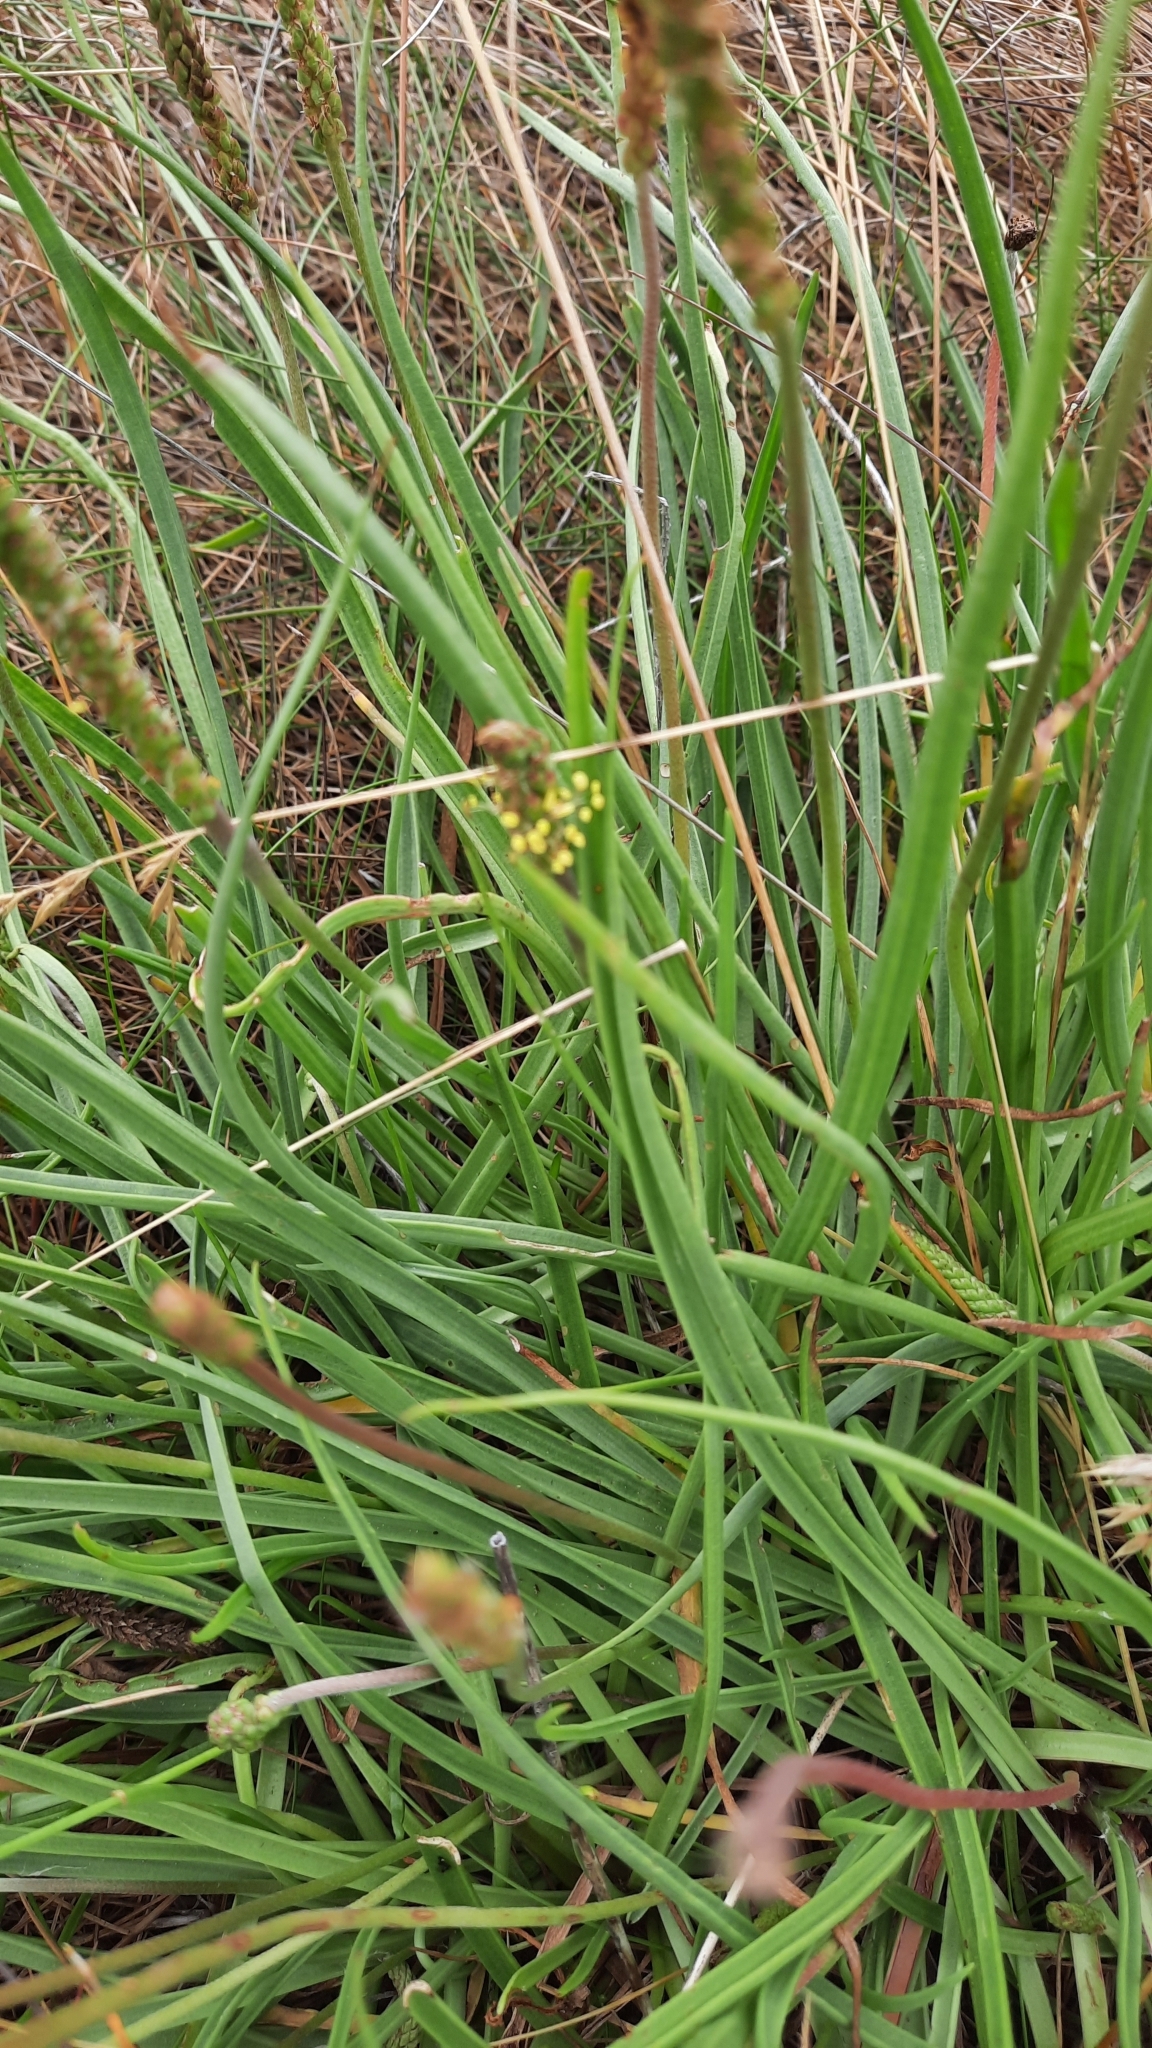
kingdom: Plantae
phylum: Tracheophyta
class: Magnoliopsida
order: Lamiales
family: Plantaginaceae
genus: Plantago
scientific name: Plantago maritima
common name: Sea plantain
